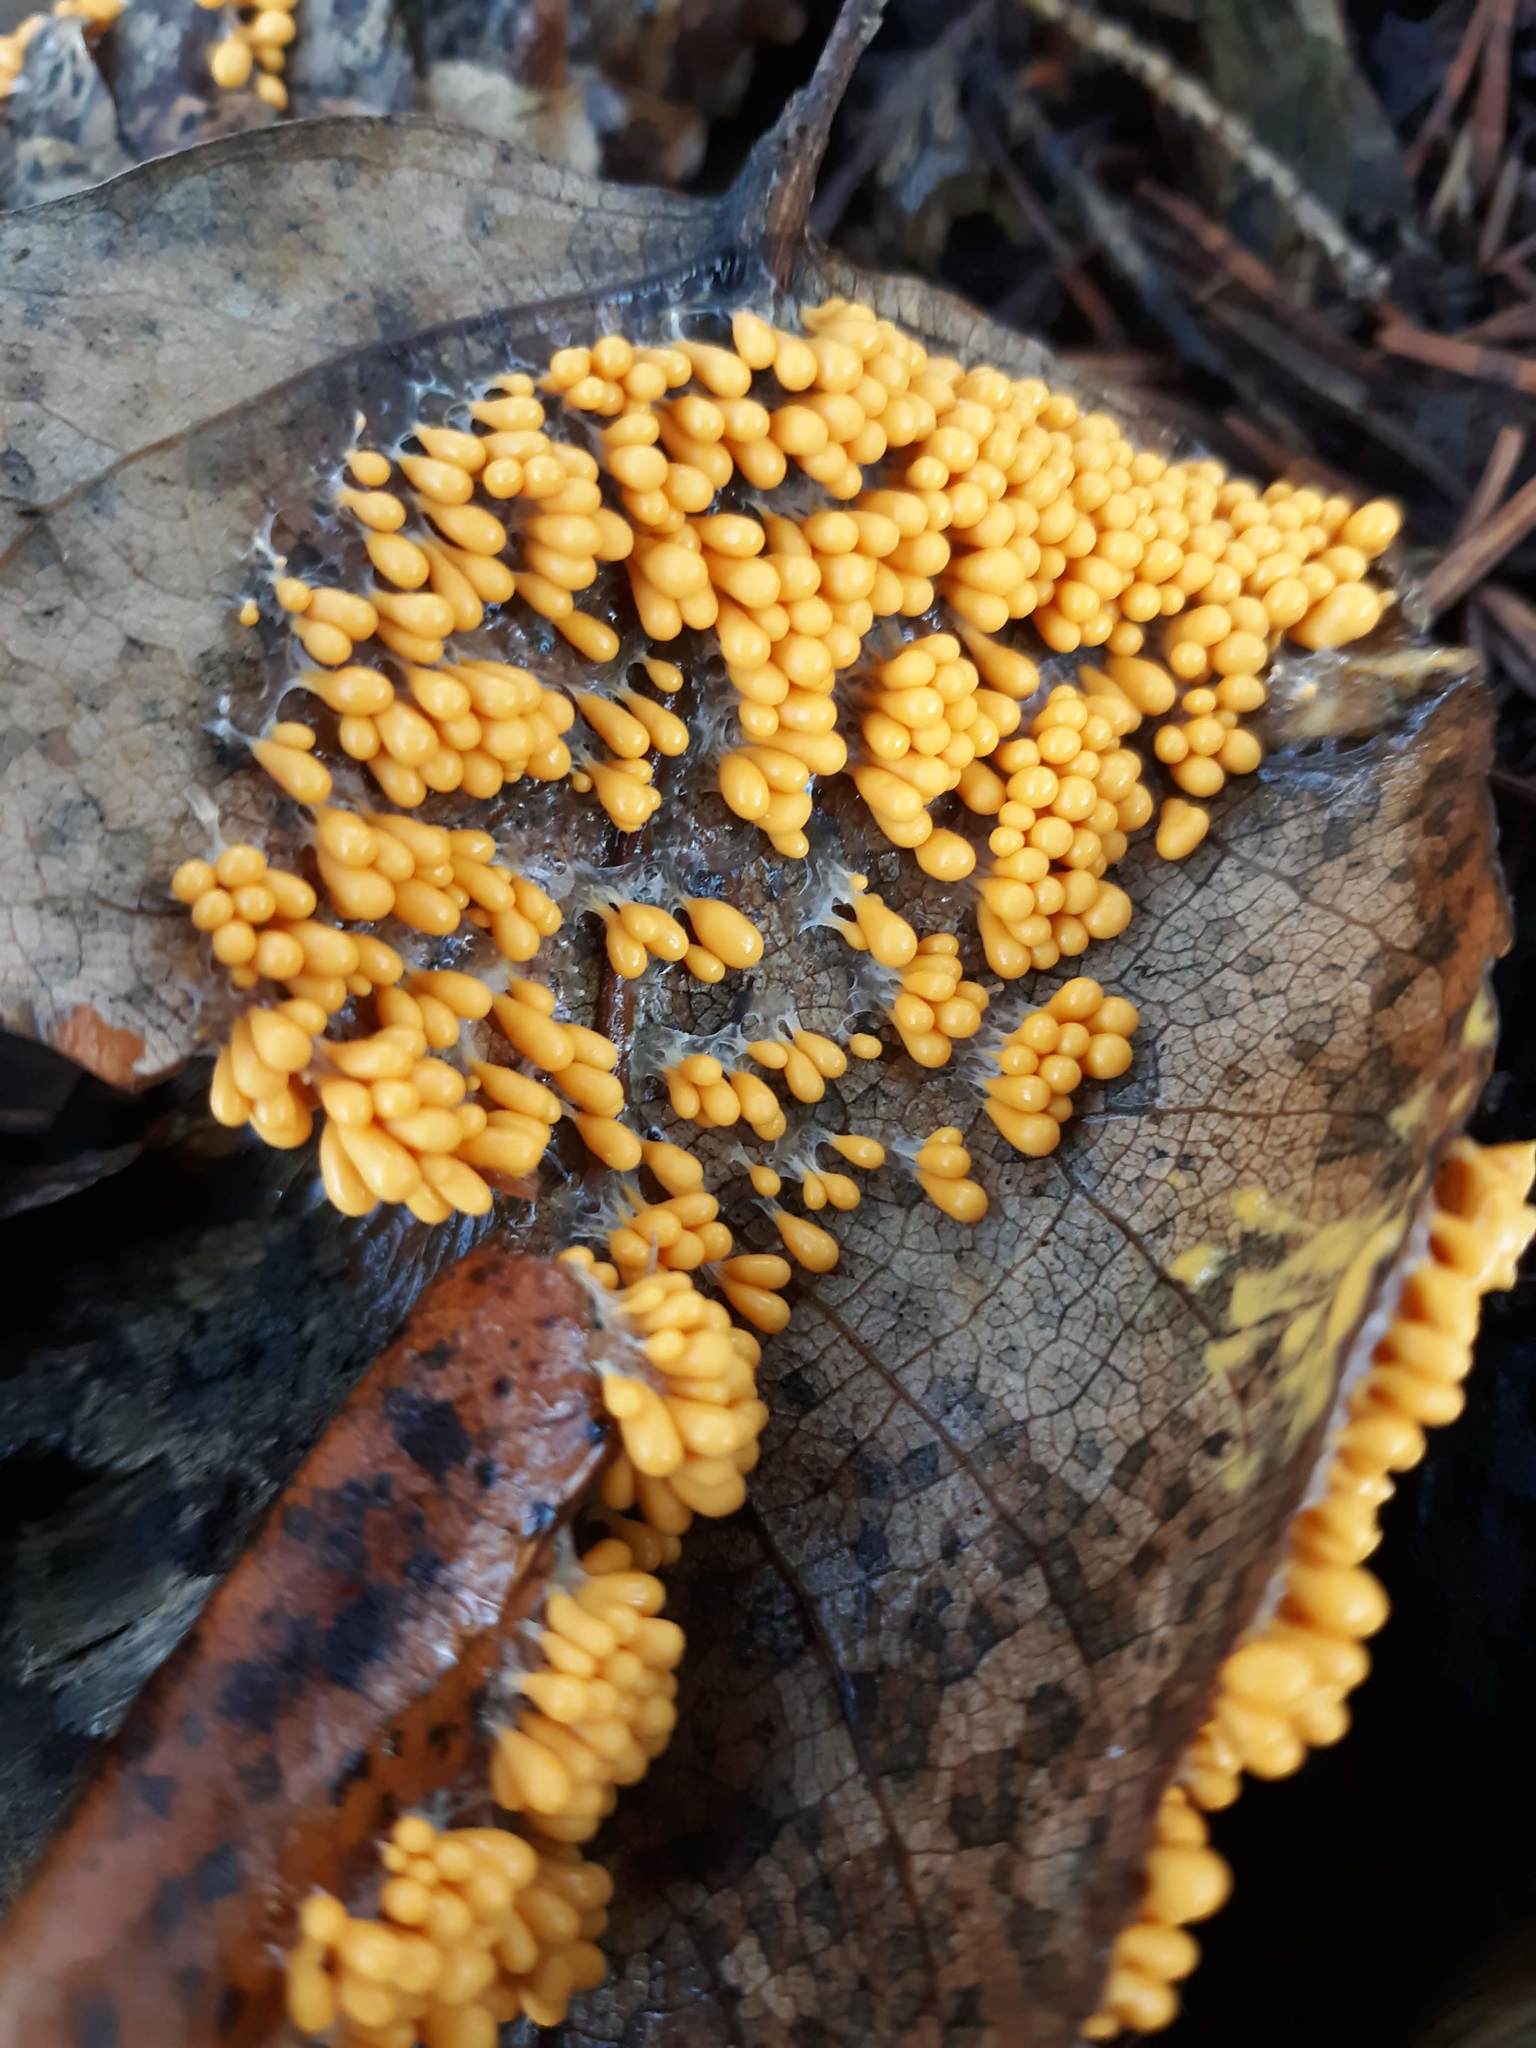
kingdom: Protozoa
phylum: Mycetozoa
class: Myxomycetes
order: Physarales
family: Physaraceae
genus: Leocarpus
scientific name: Leocarpus fragilis
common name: Insect-egg slime
